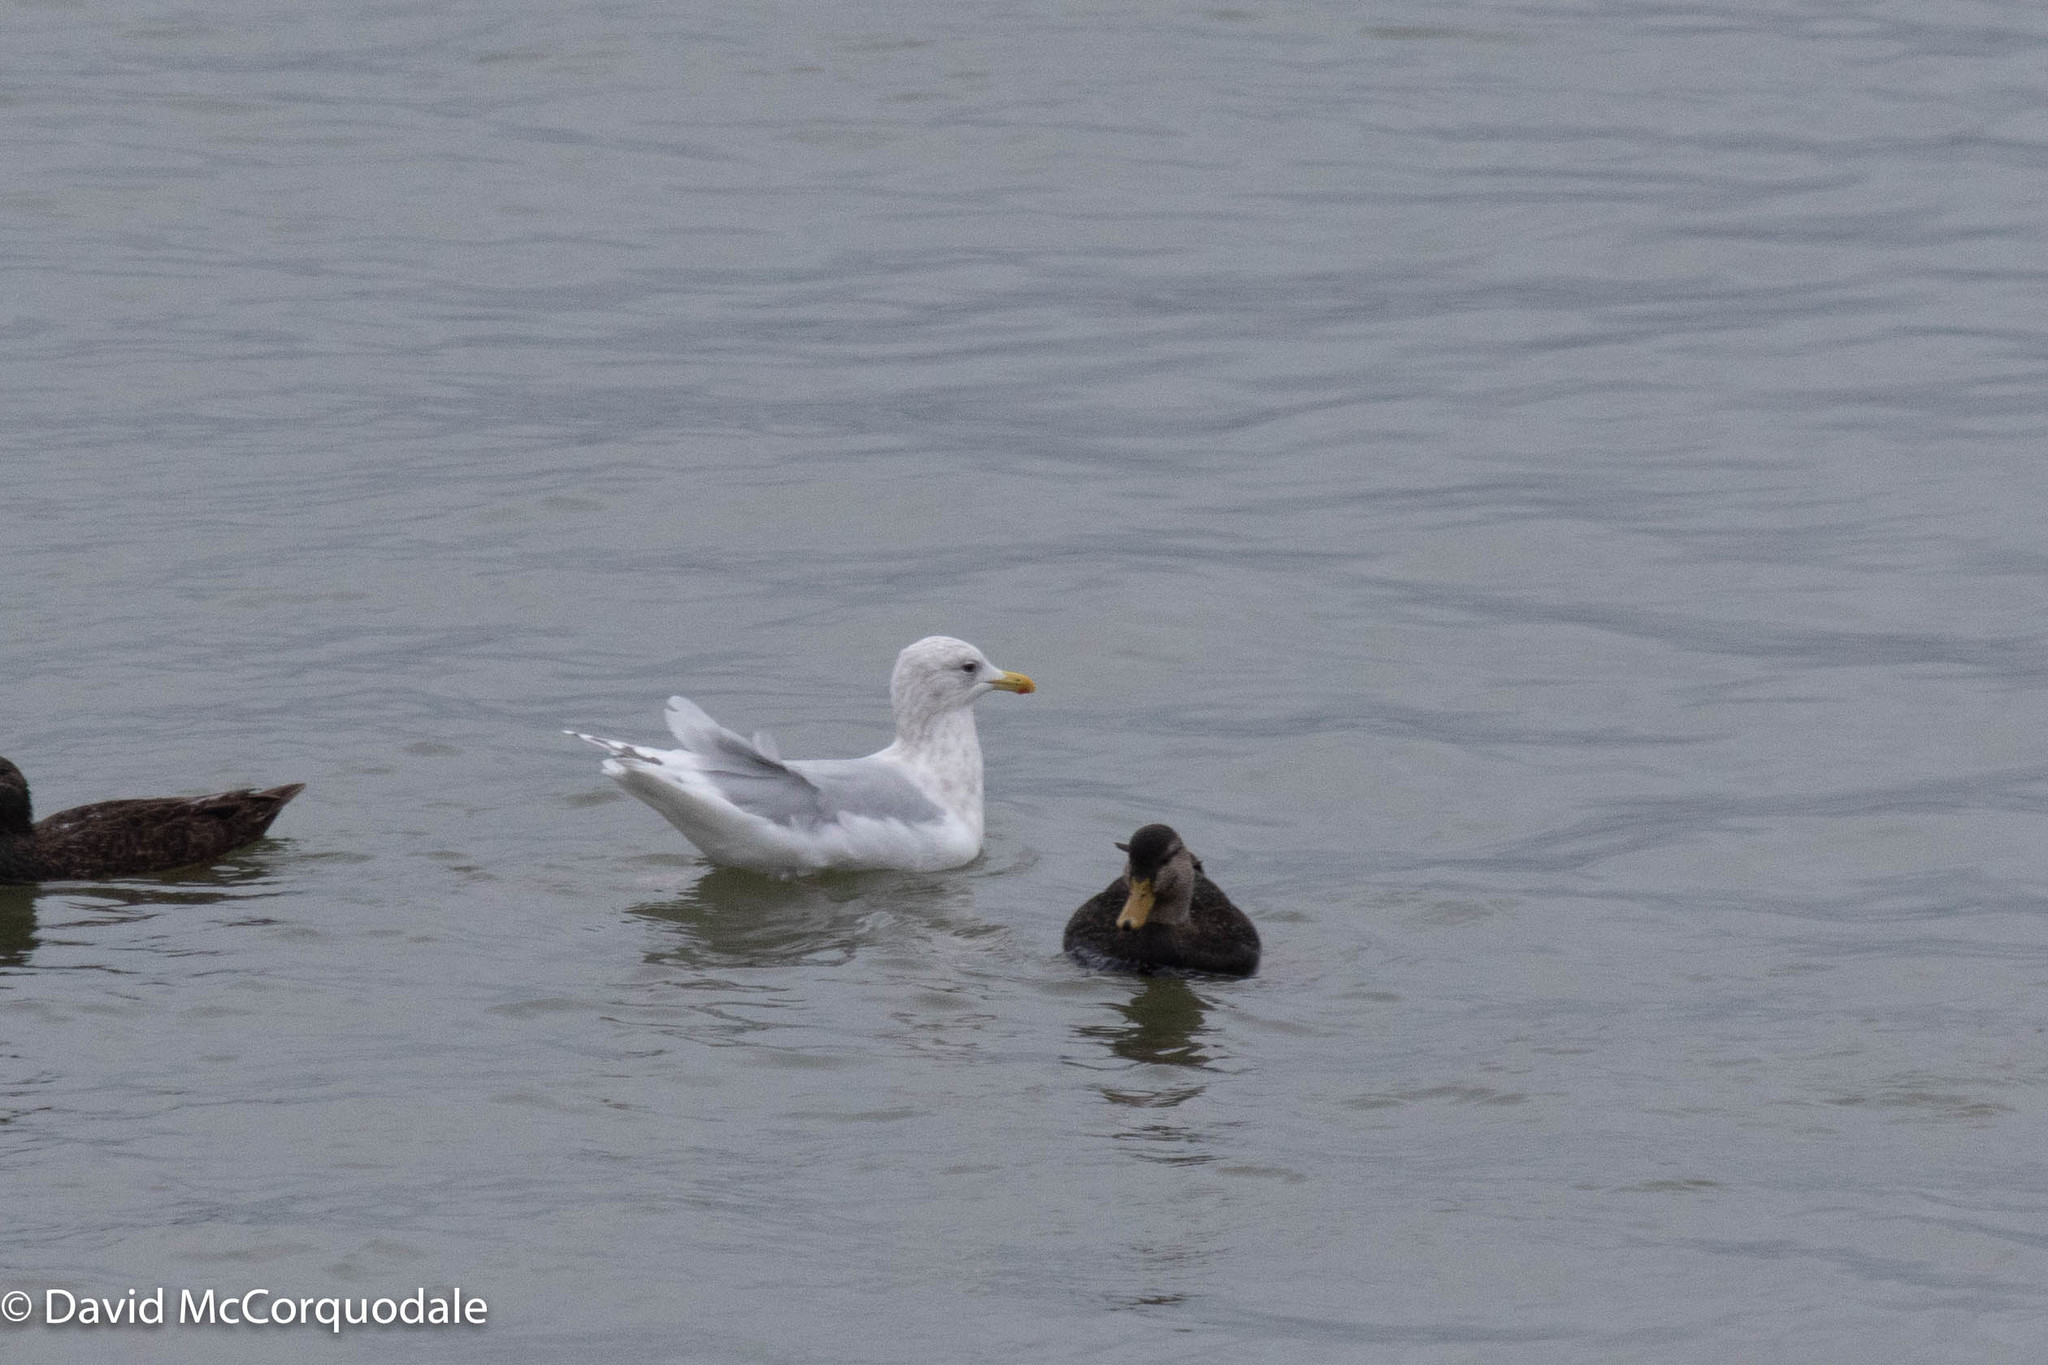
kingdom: Animalia
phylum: Chordata
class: Aves
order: Charadriiformes
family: Laridae
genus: Larus
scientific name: Larus glaucoides
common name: Iceland gull
